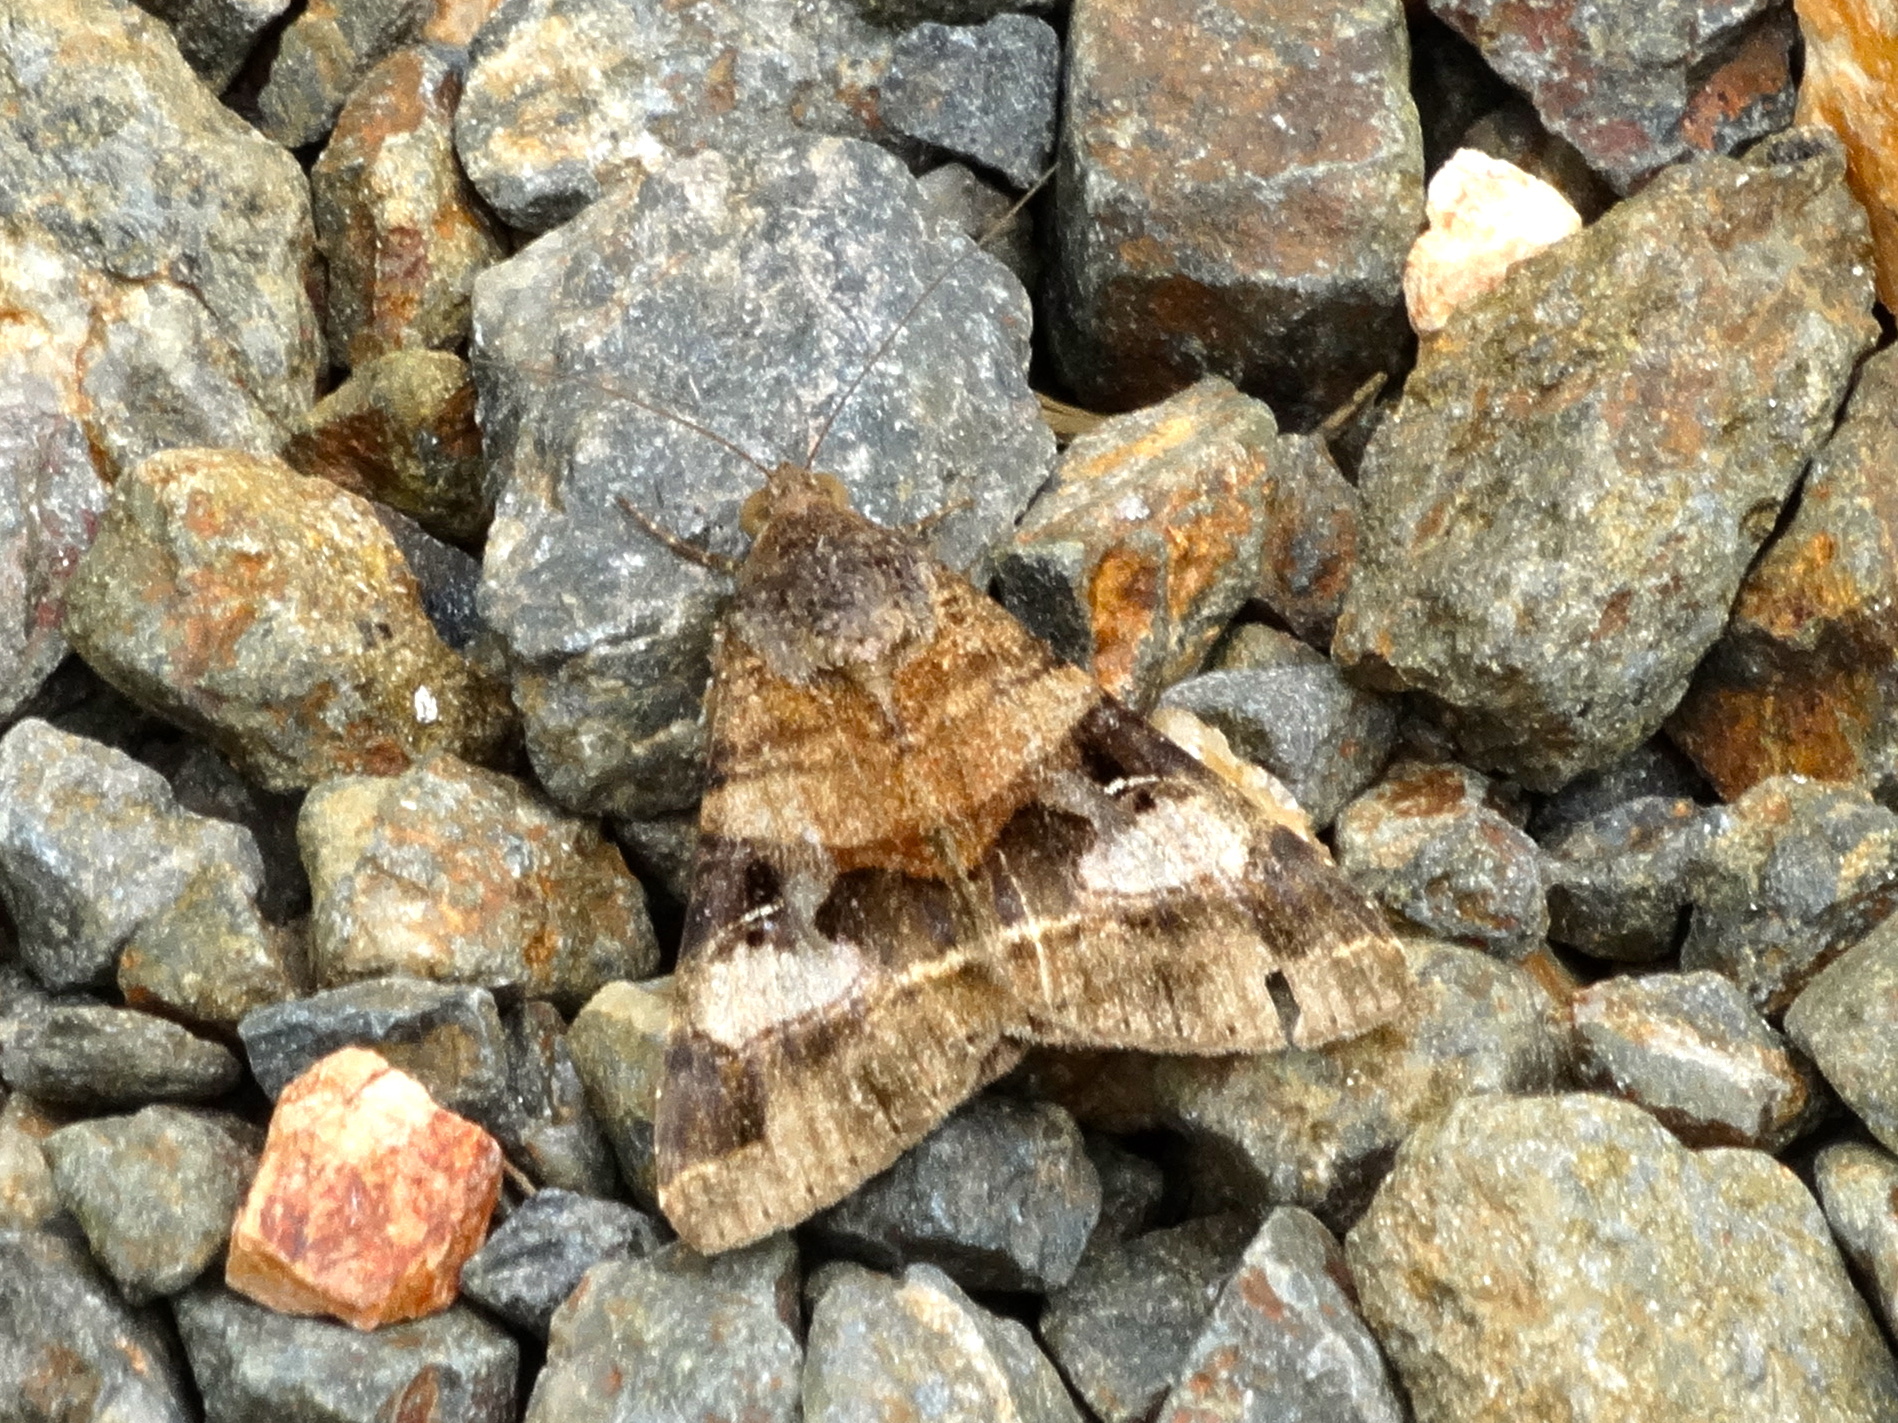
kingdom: Animalia
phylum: Arthropoda
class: Insecta
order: Lepidoptera
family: Erebidae
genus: Melipotis
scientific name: Melipotis perpendicularis
